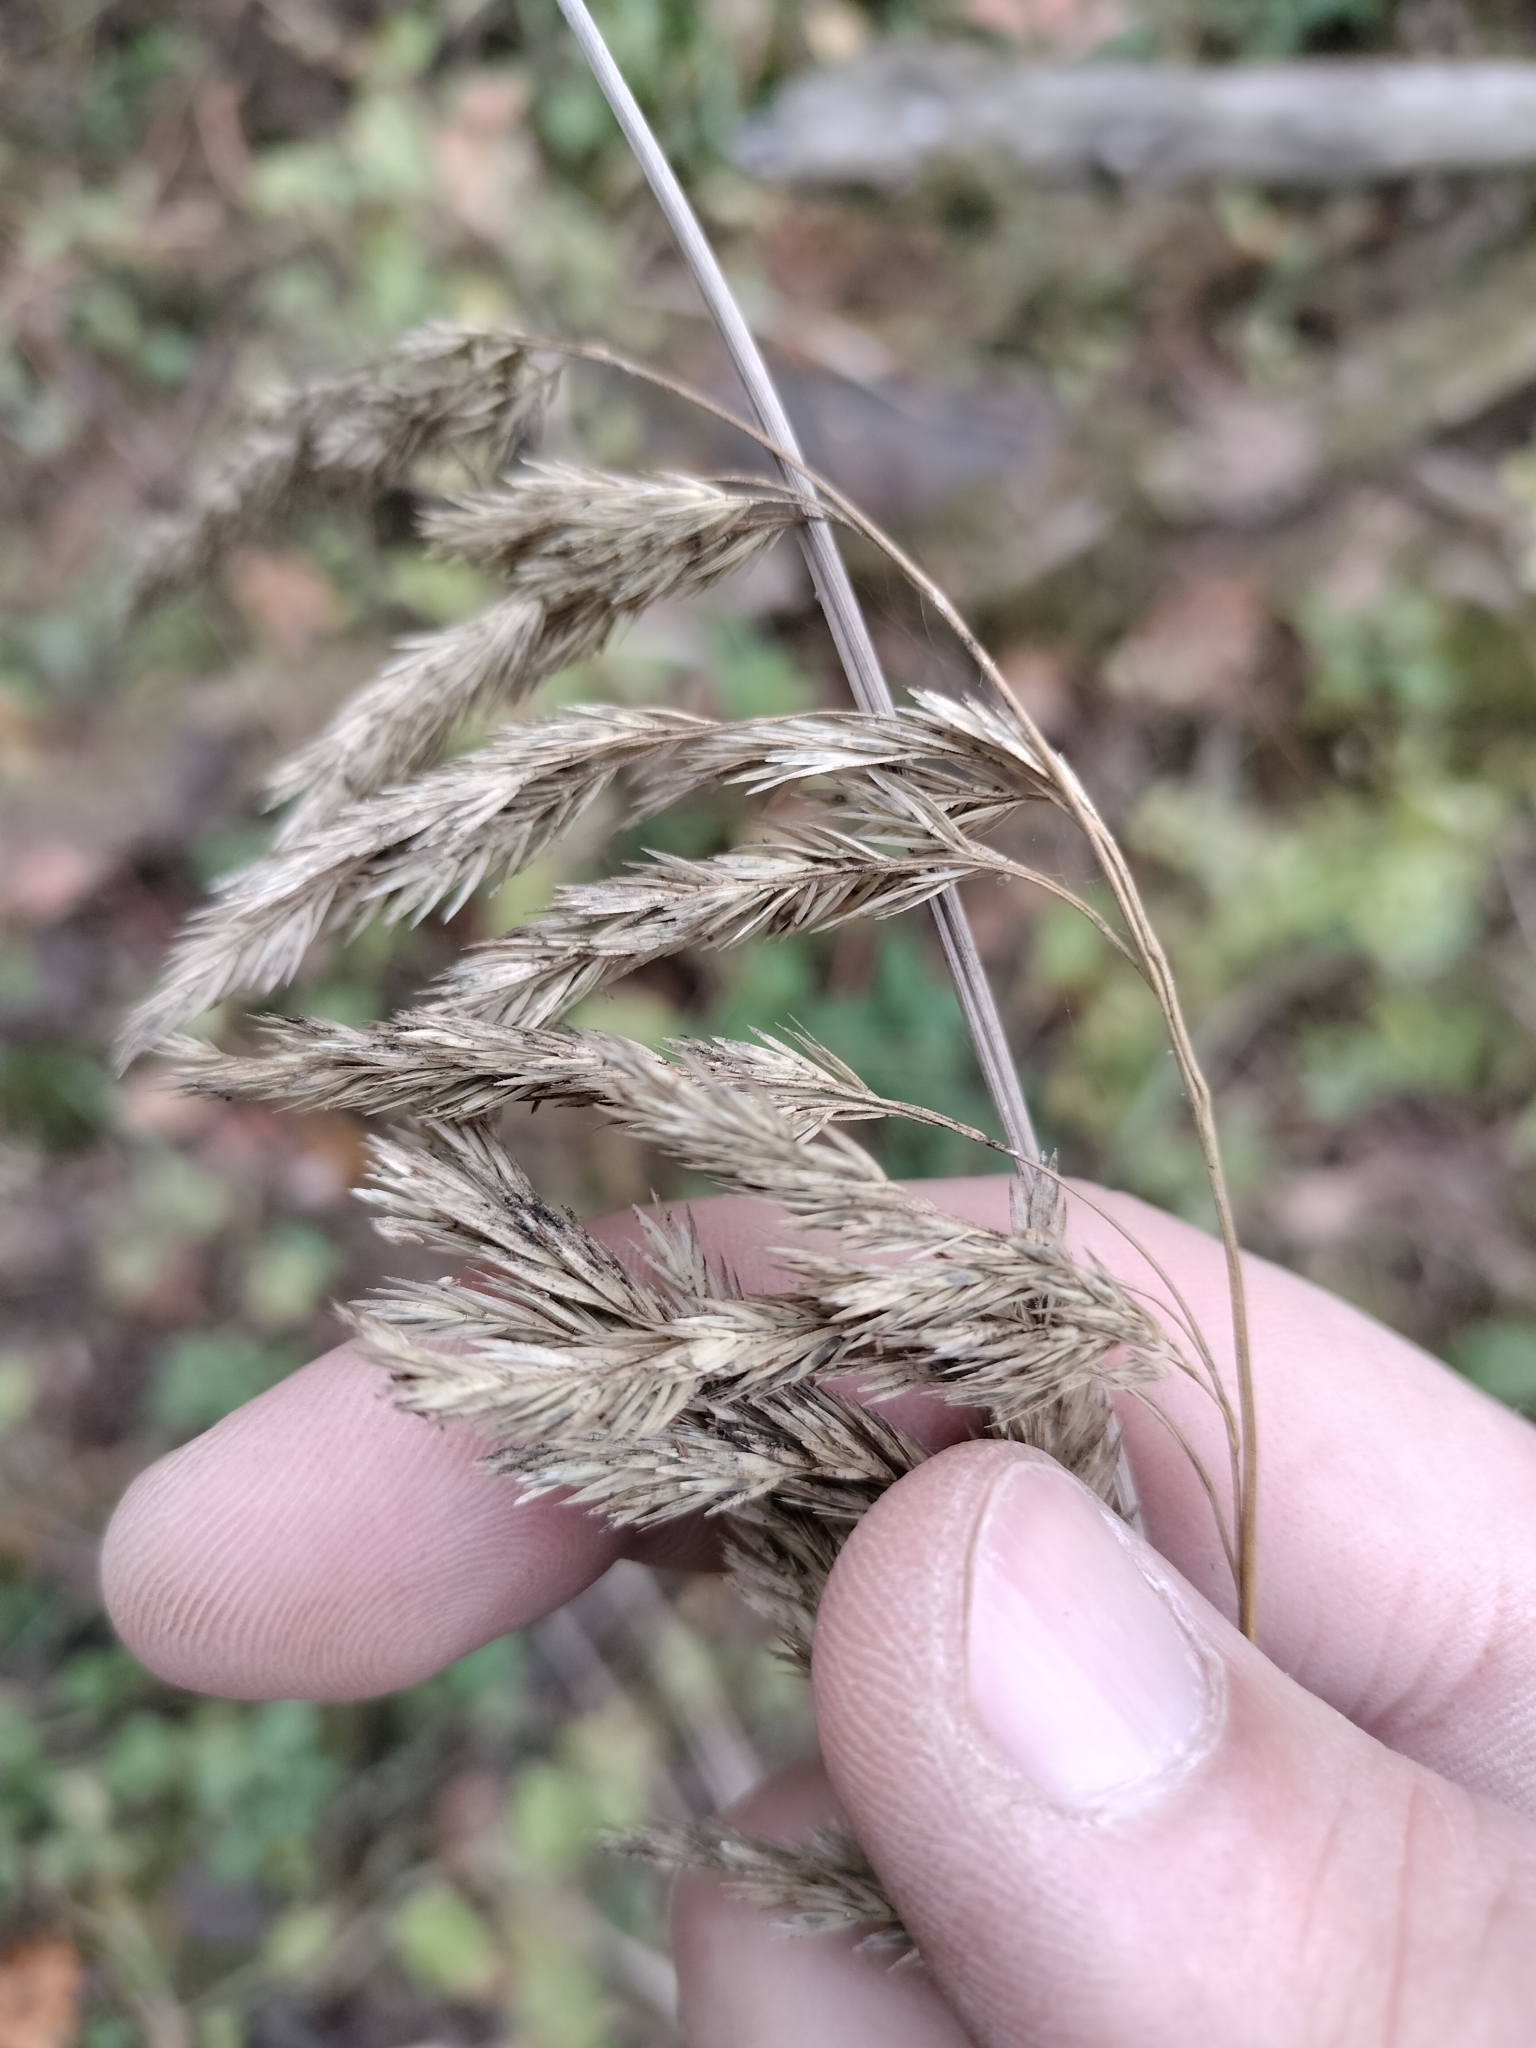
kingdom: Plantae
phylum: Tracheophyta
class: Liliopsida
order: Poales
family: Poaceae
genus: Cinna
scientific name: Cinna arundinacea
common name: Stout woodreed
